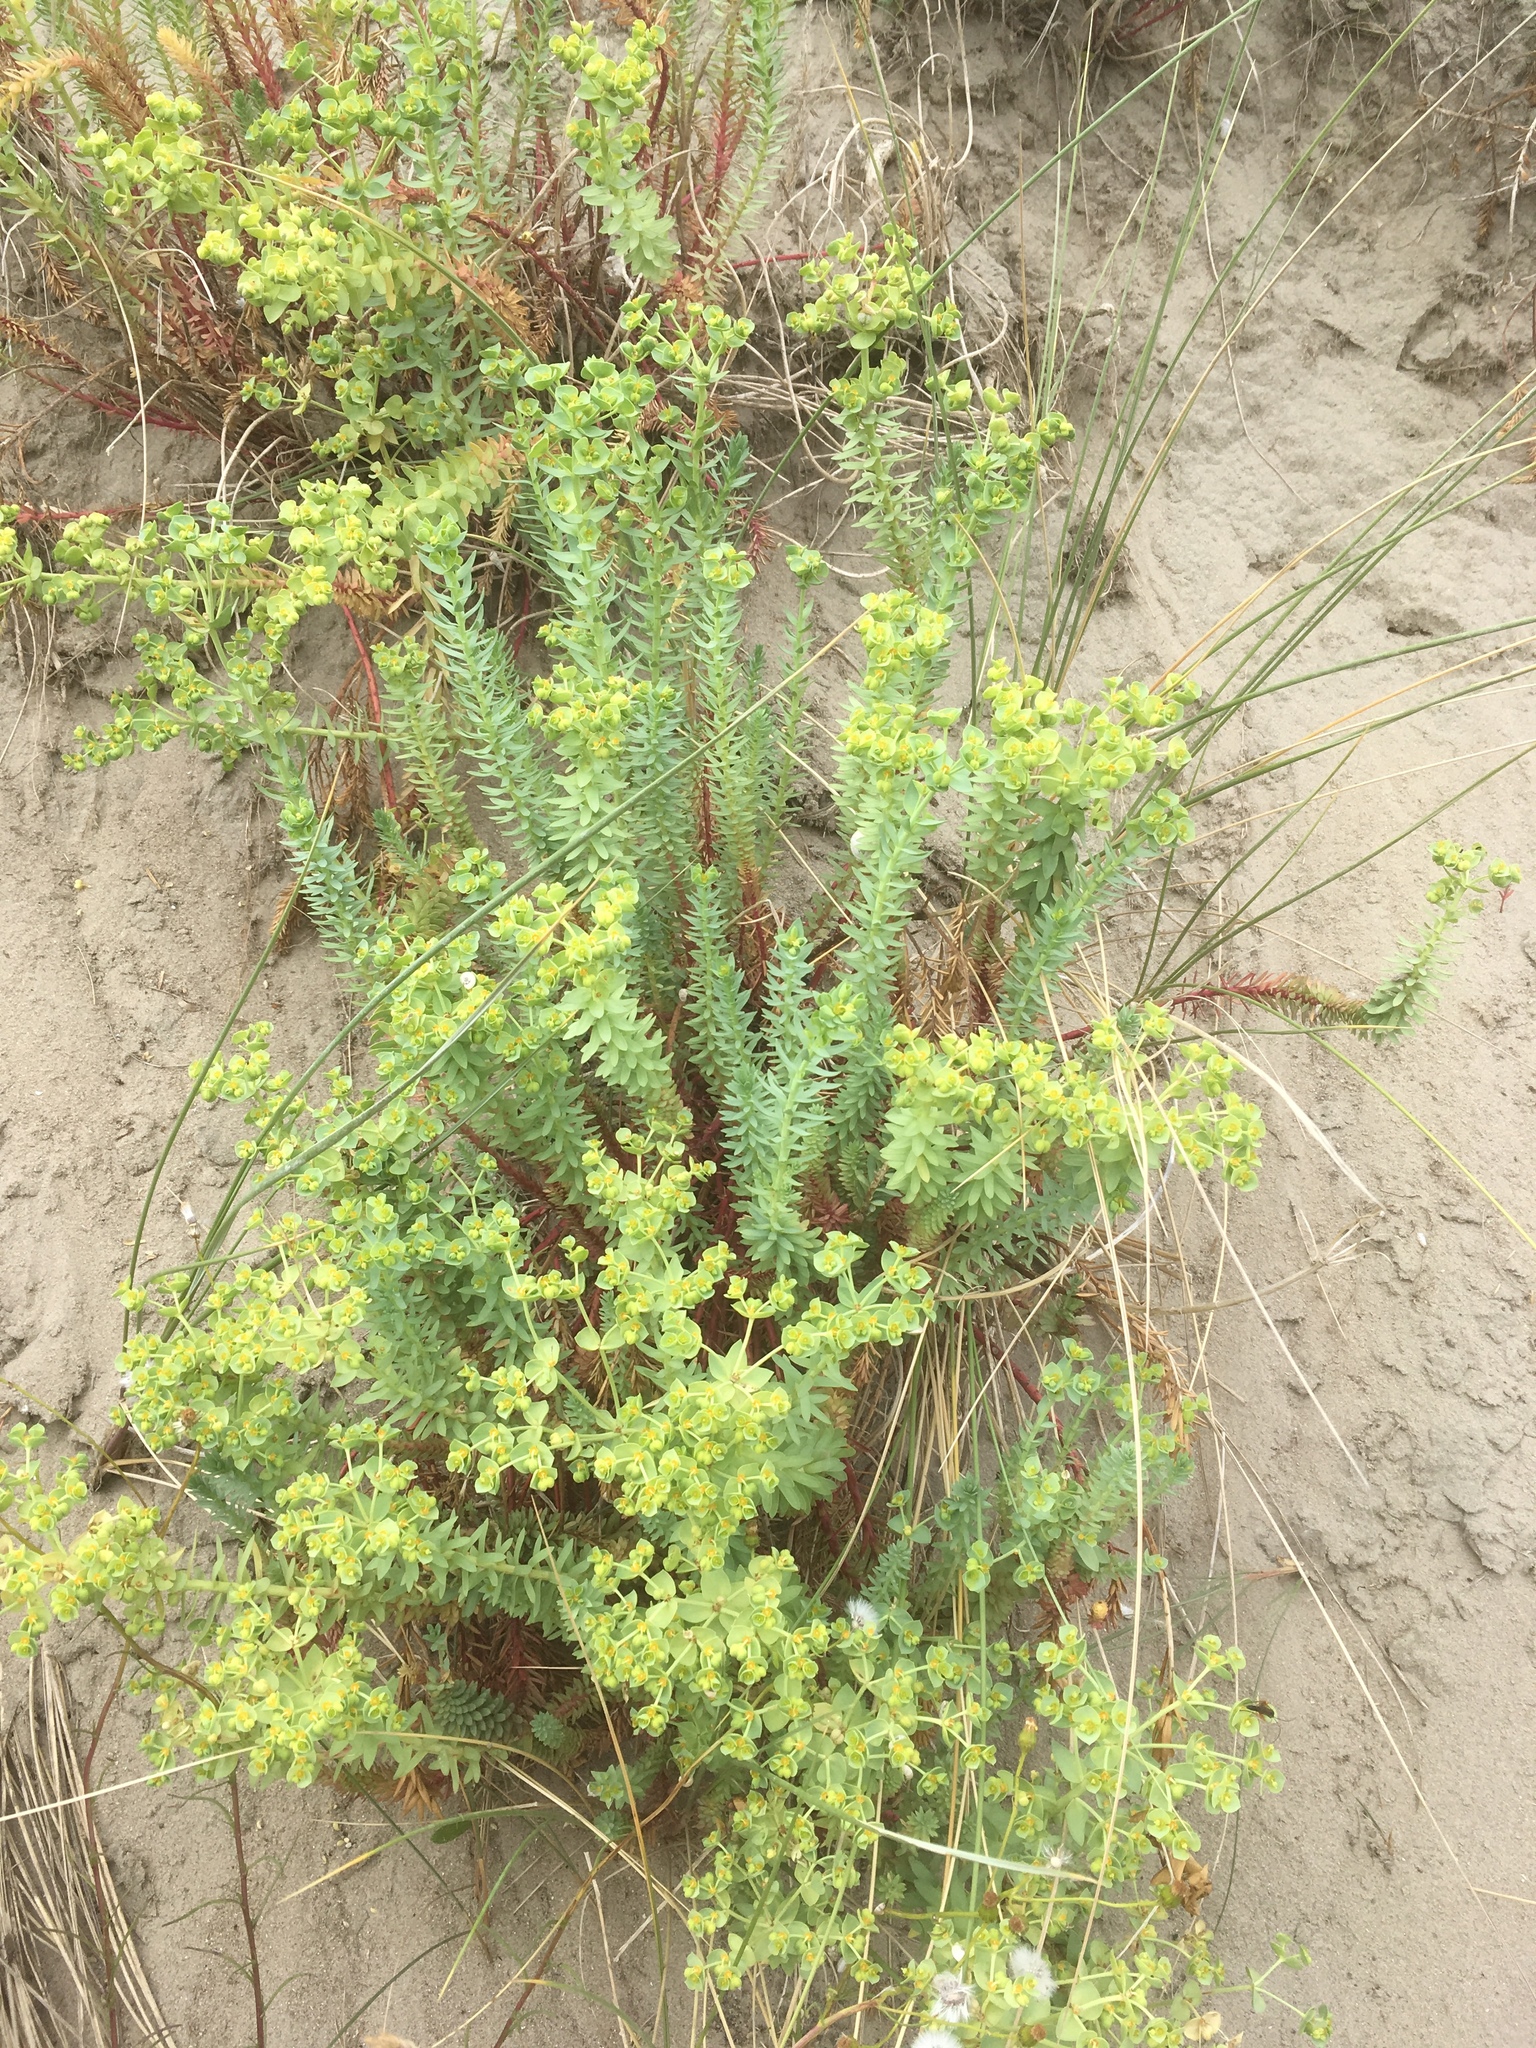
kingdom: Plantae
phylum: Tracheophyta
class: Magnoliopsida
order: Malpighiales
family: Euphorbiaceae
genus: Euphorbia
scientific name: Euphorbia paralias
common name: Sea spurge
